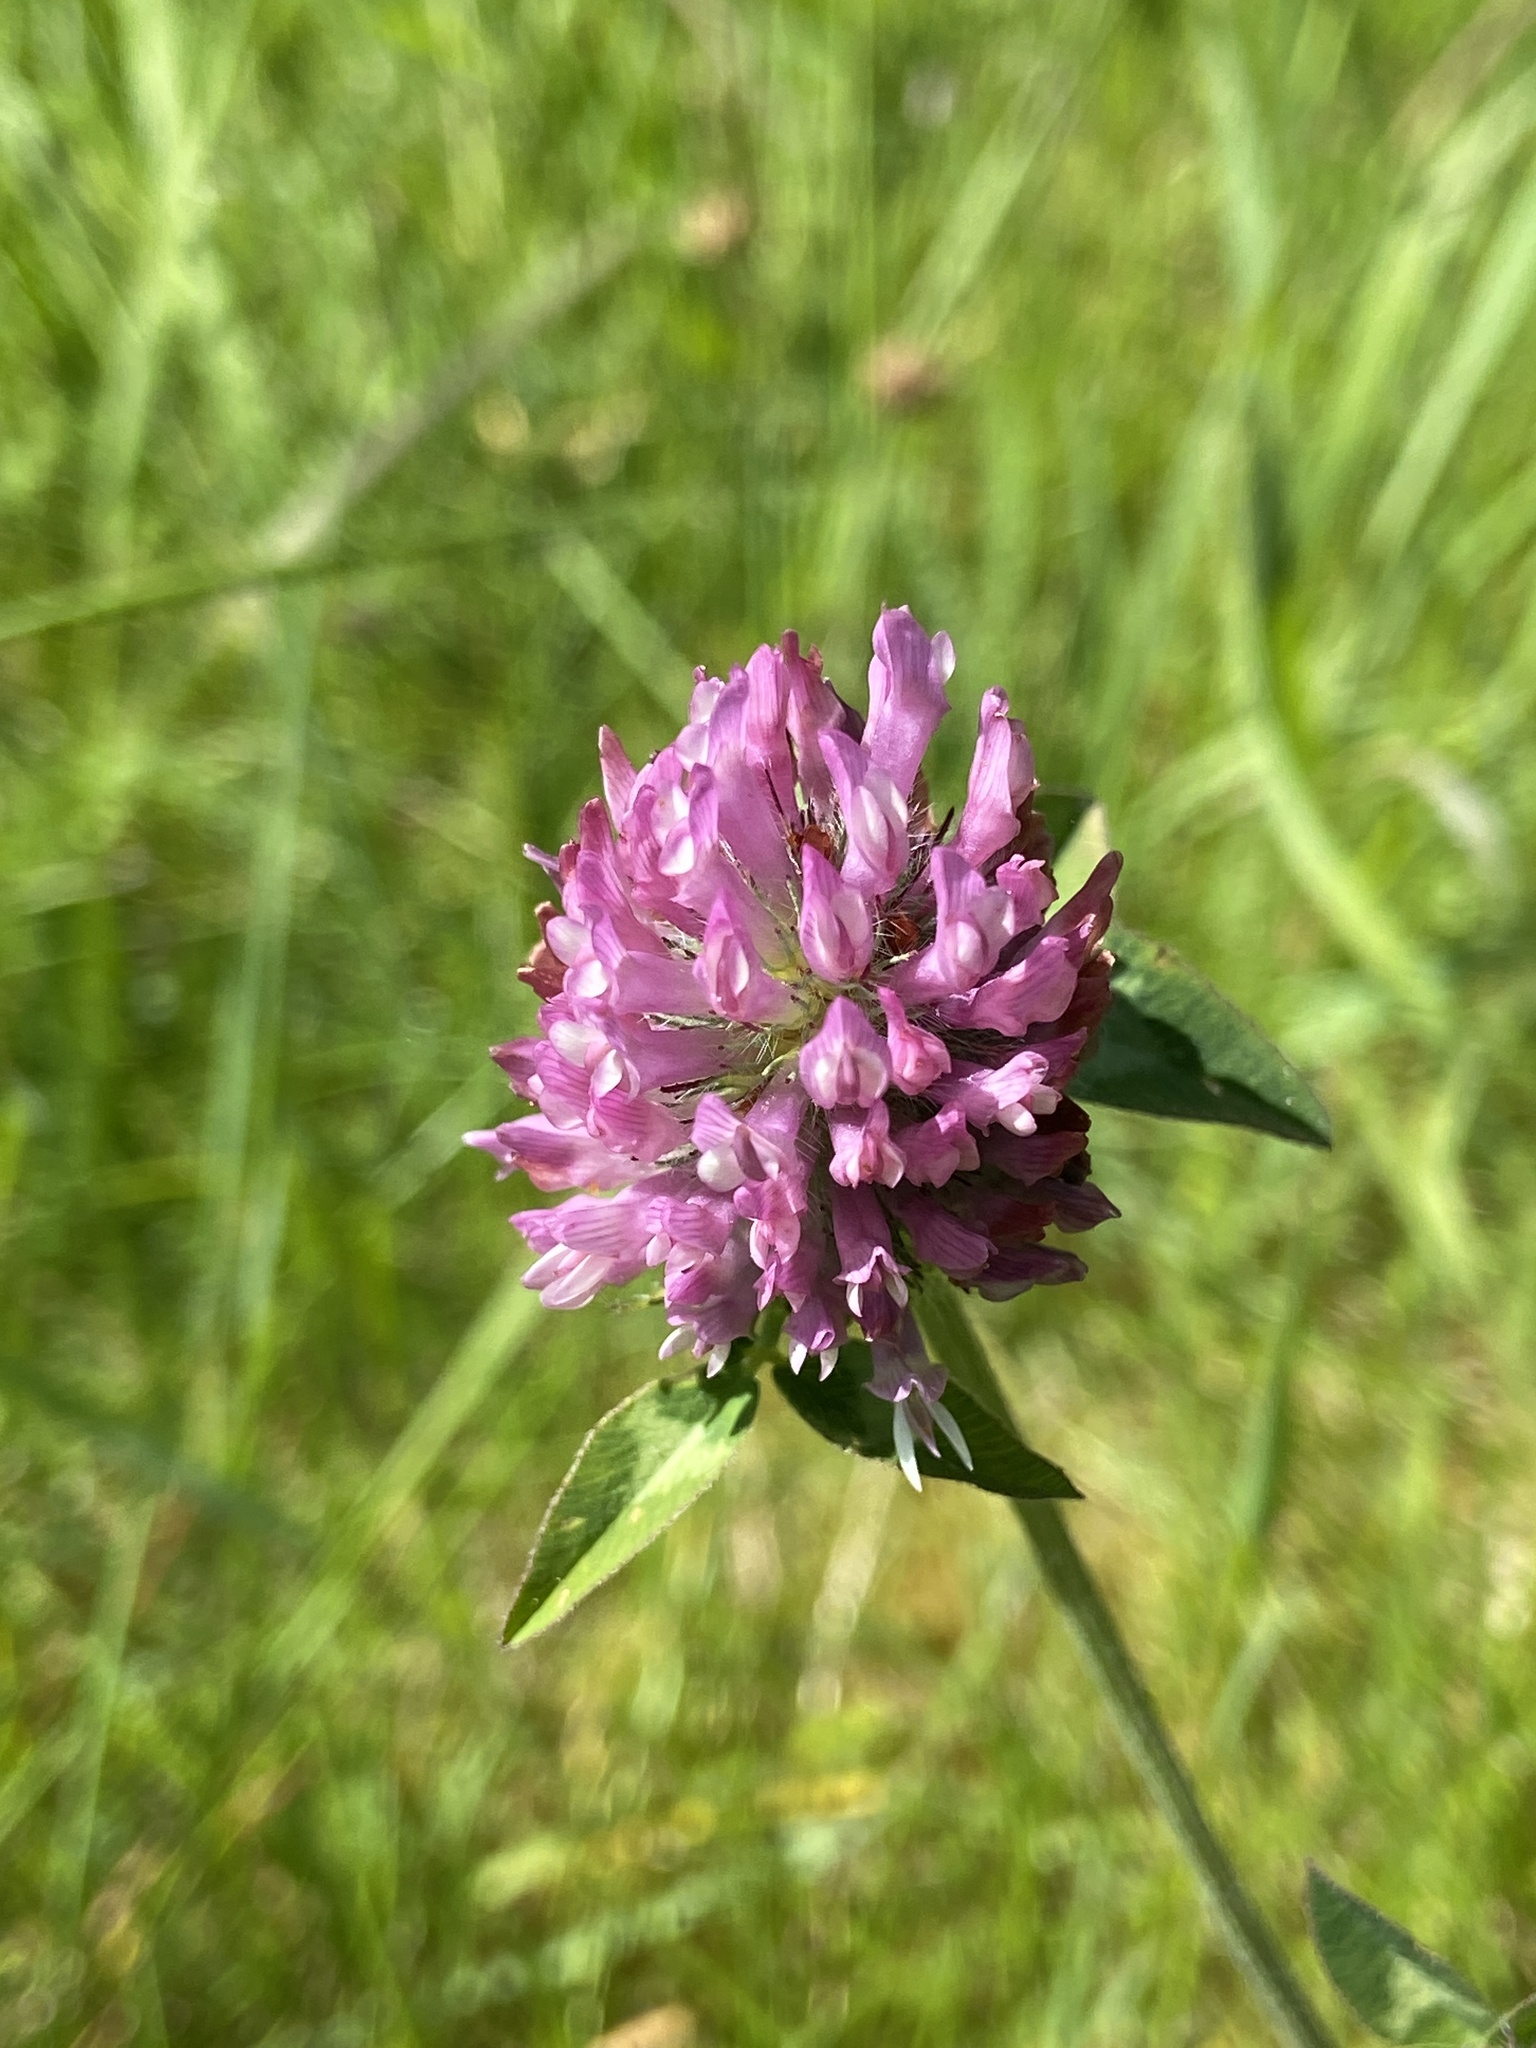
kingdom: Plantae
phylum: Tracheophyta
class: Magnoliopsida
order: Fabales
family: Fabaceae
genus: Trifolium
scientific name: Trifolium pratense
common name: Red clover
